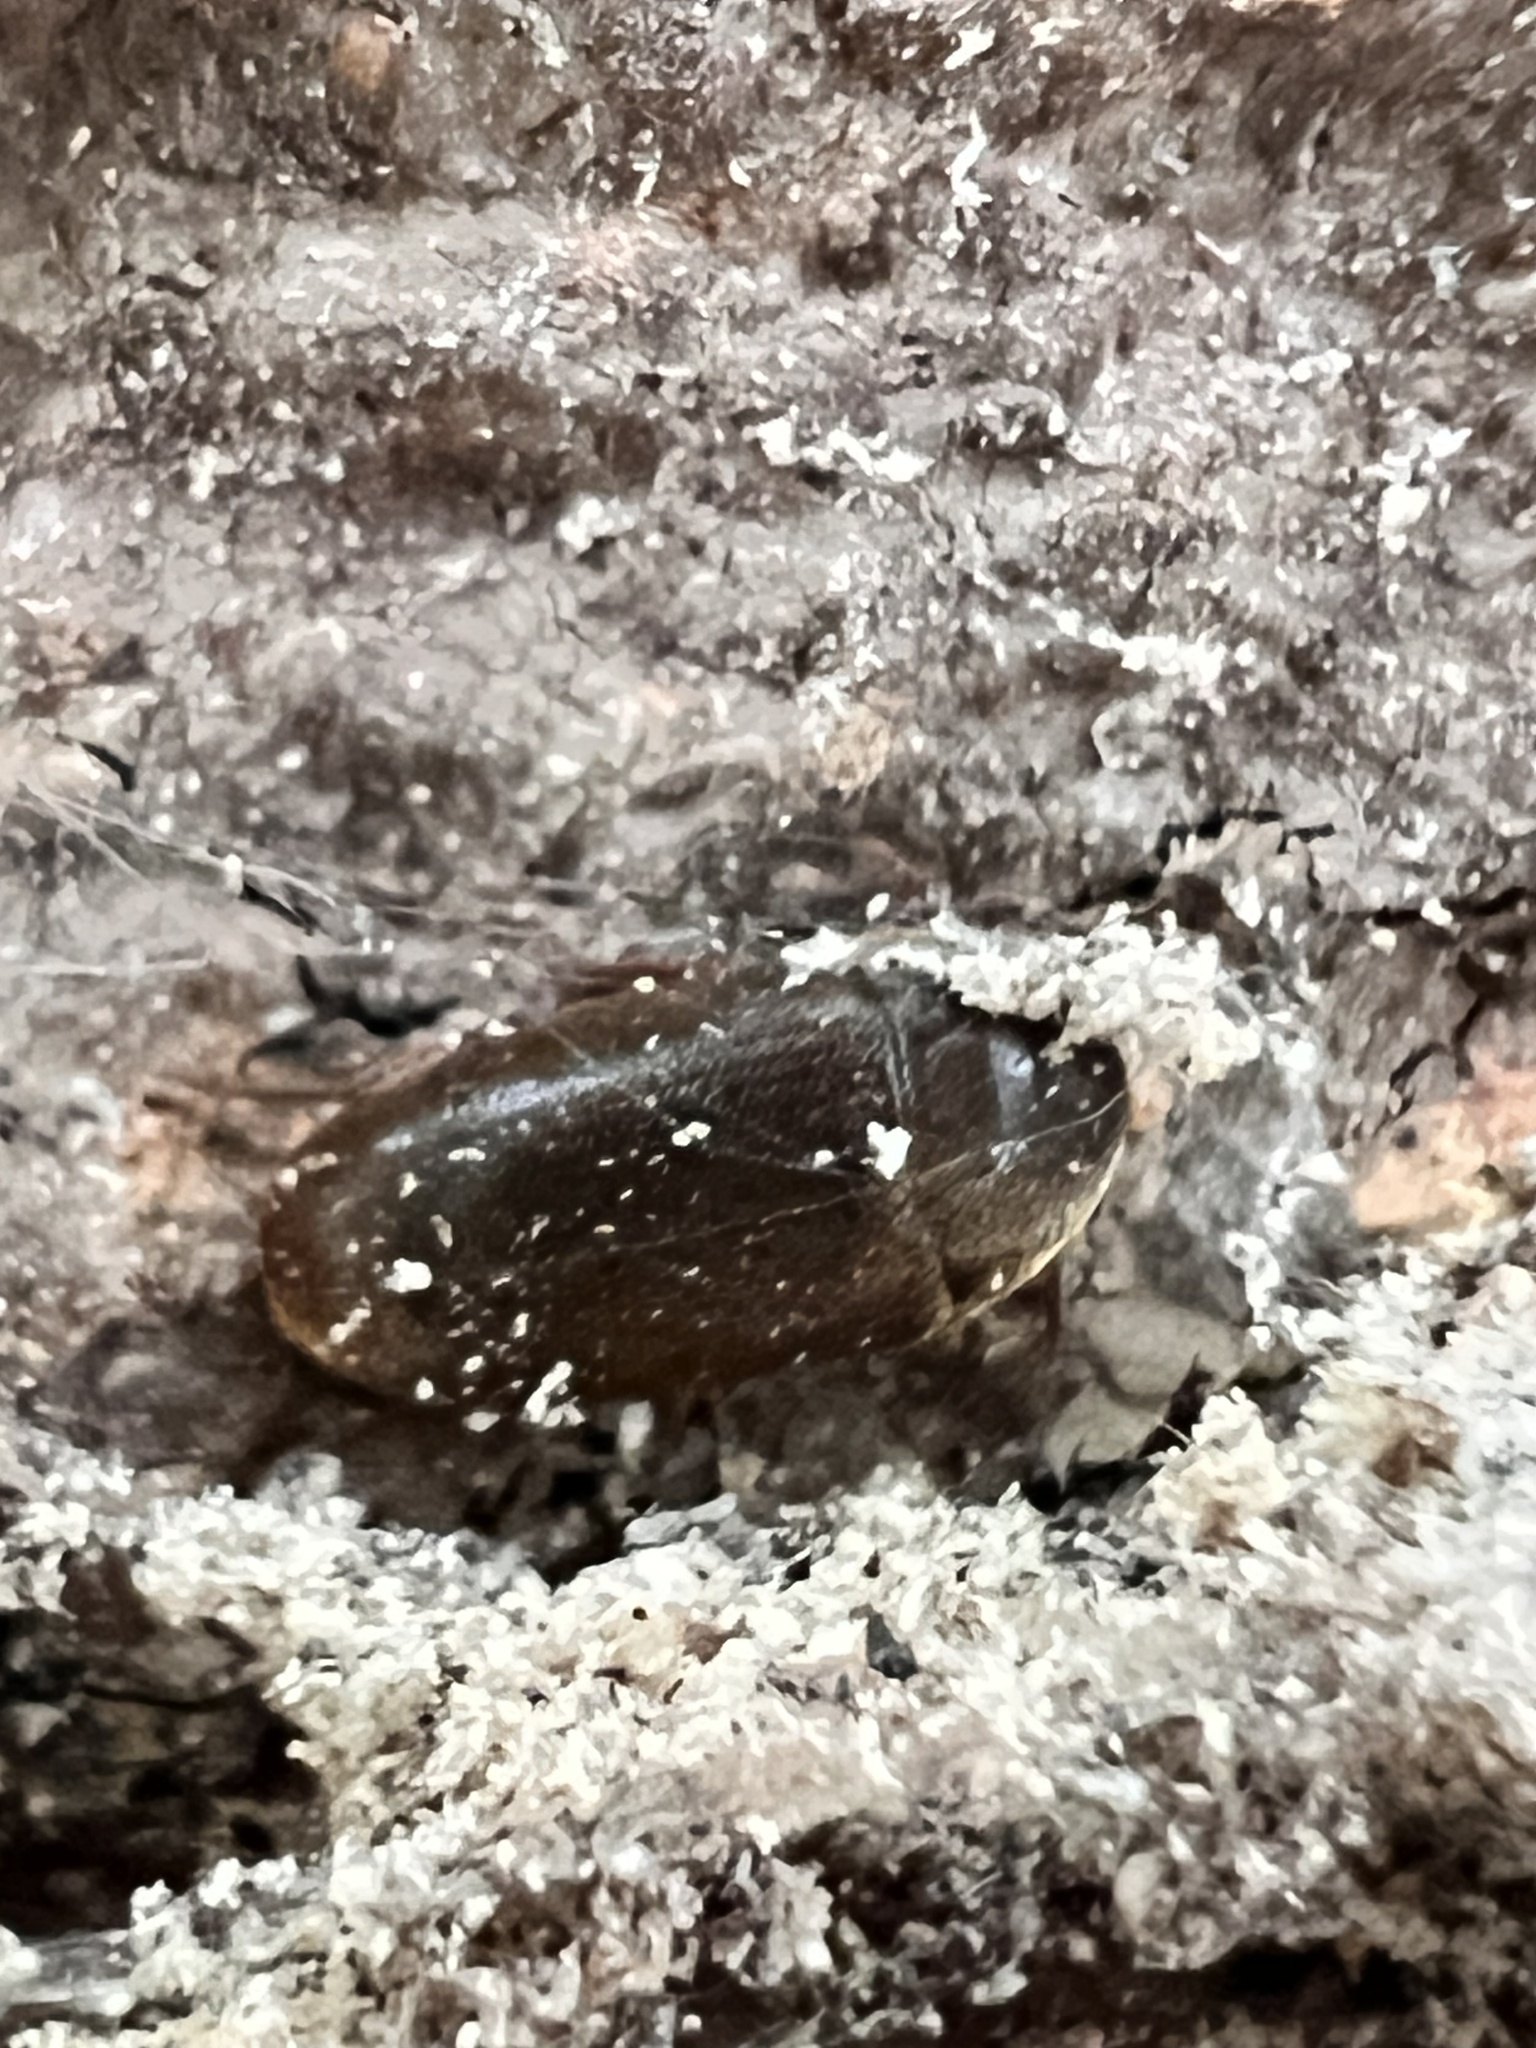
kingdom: Animalia
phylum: Arthropoda
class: Insecta
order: Coleoptera
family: Tetratomidae
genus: Eustrophus
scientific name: Eustrophus tomentosus
